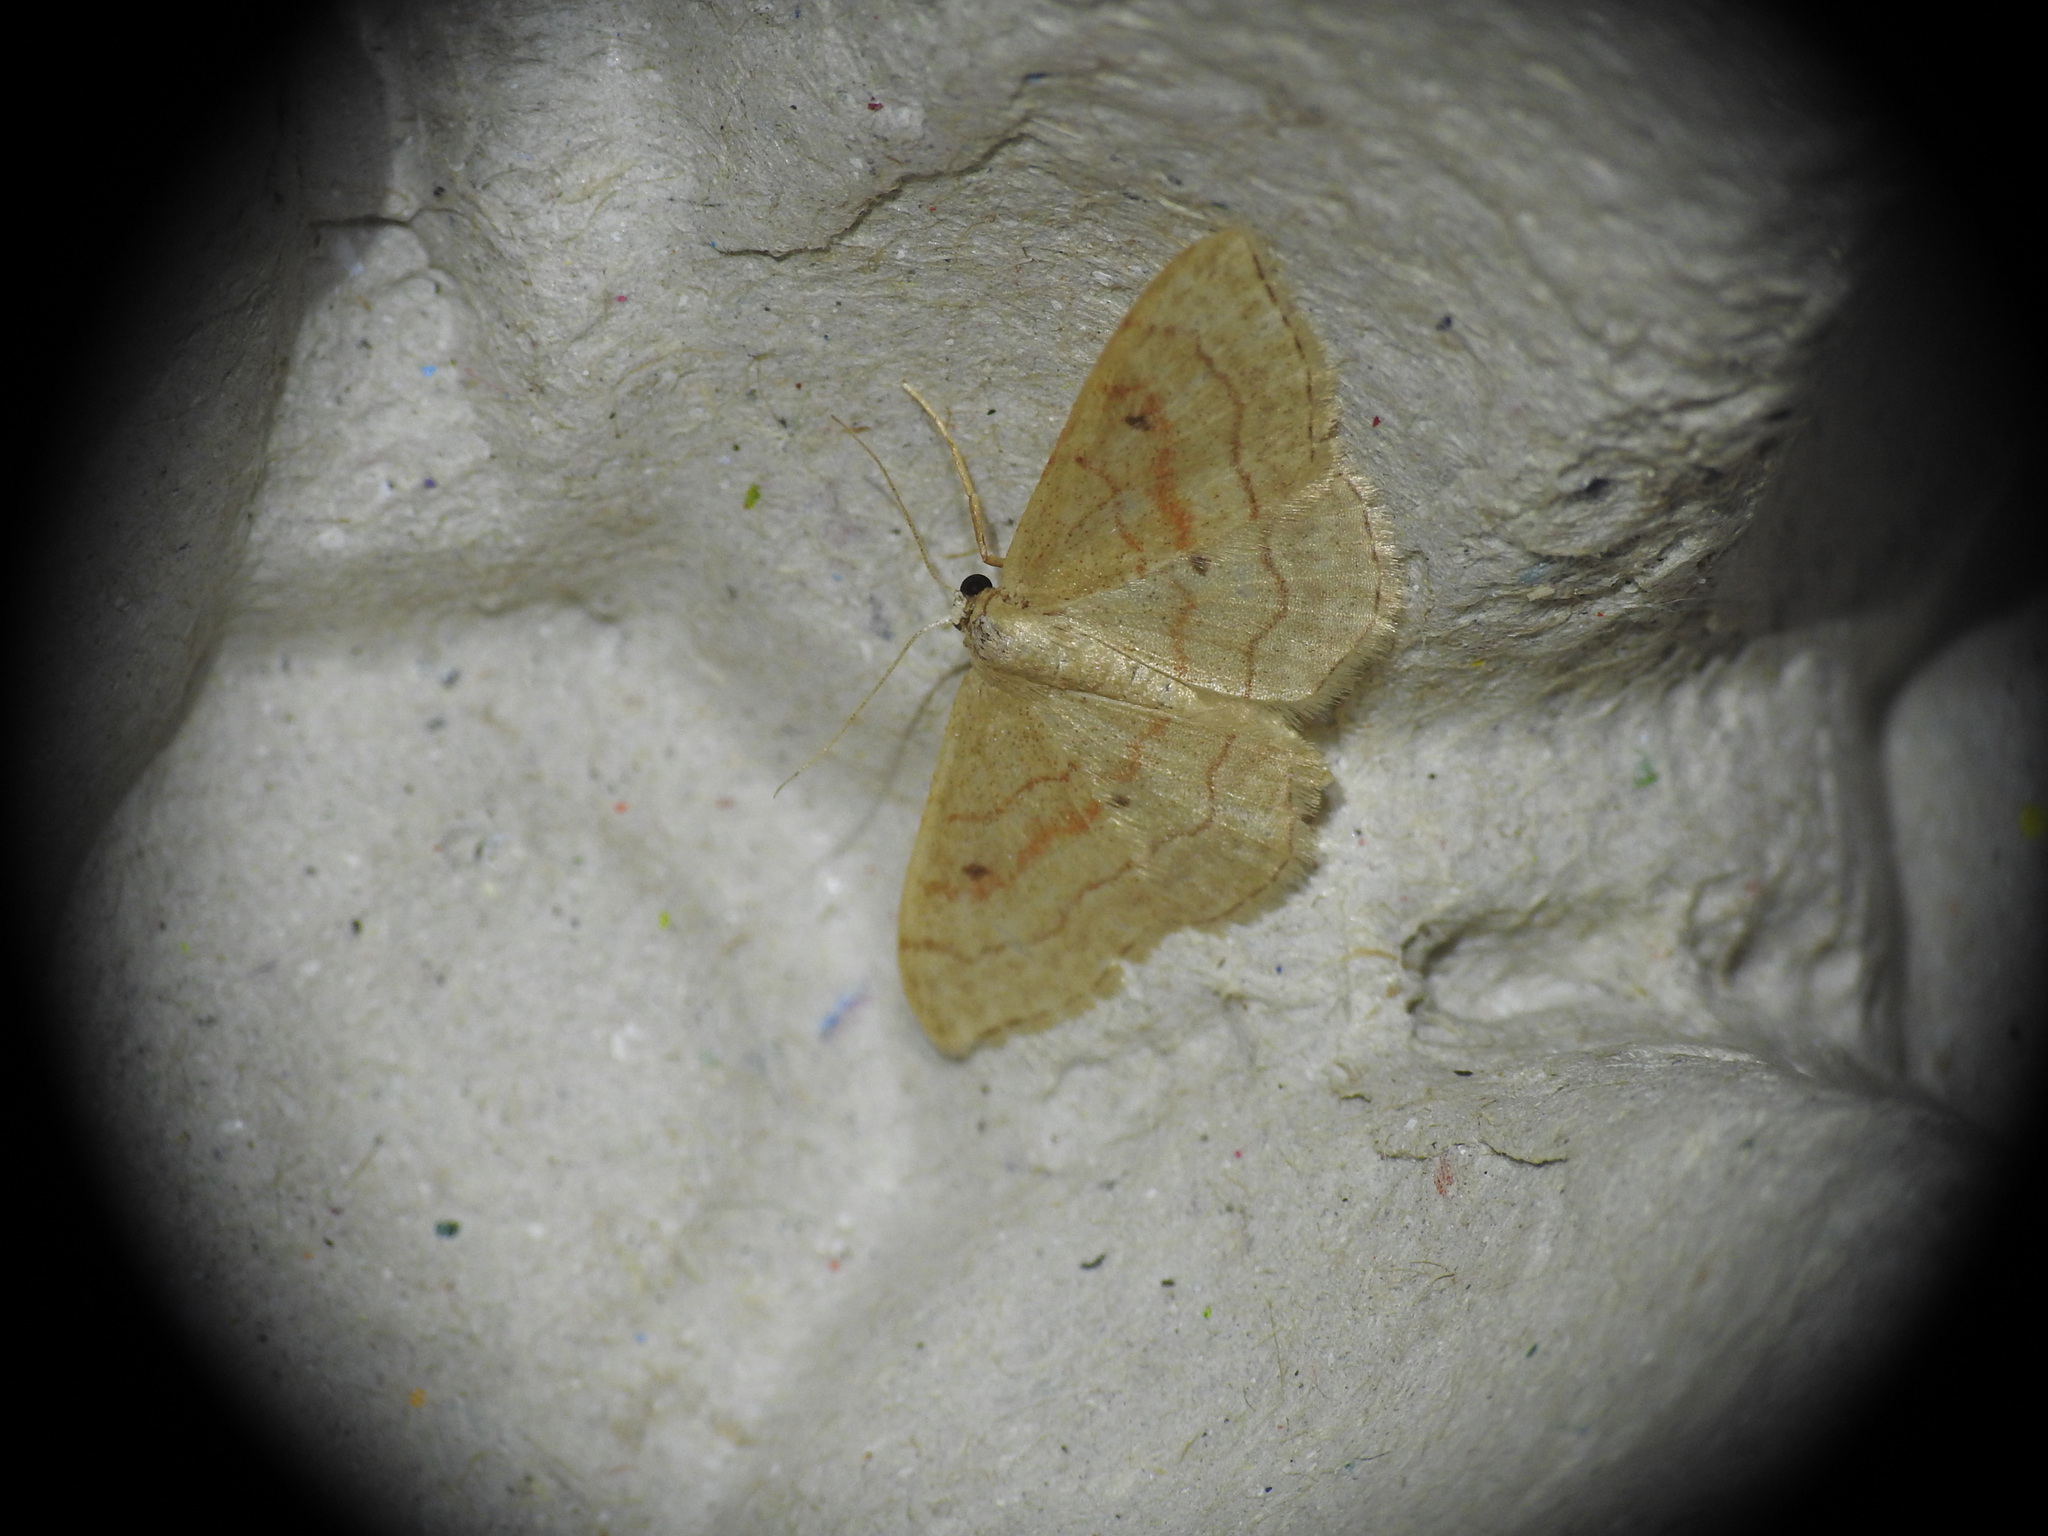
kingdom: Animalia
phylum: Arthropoda
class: Insecta
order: Lepidoptera
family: Geometridae
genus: Idaea
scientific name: Idaea bilinearia
